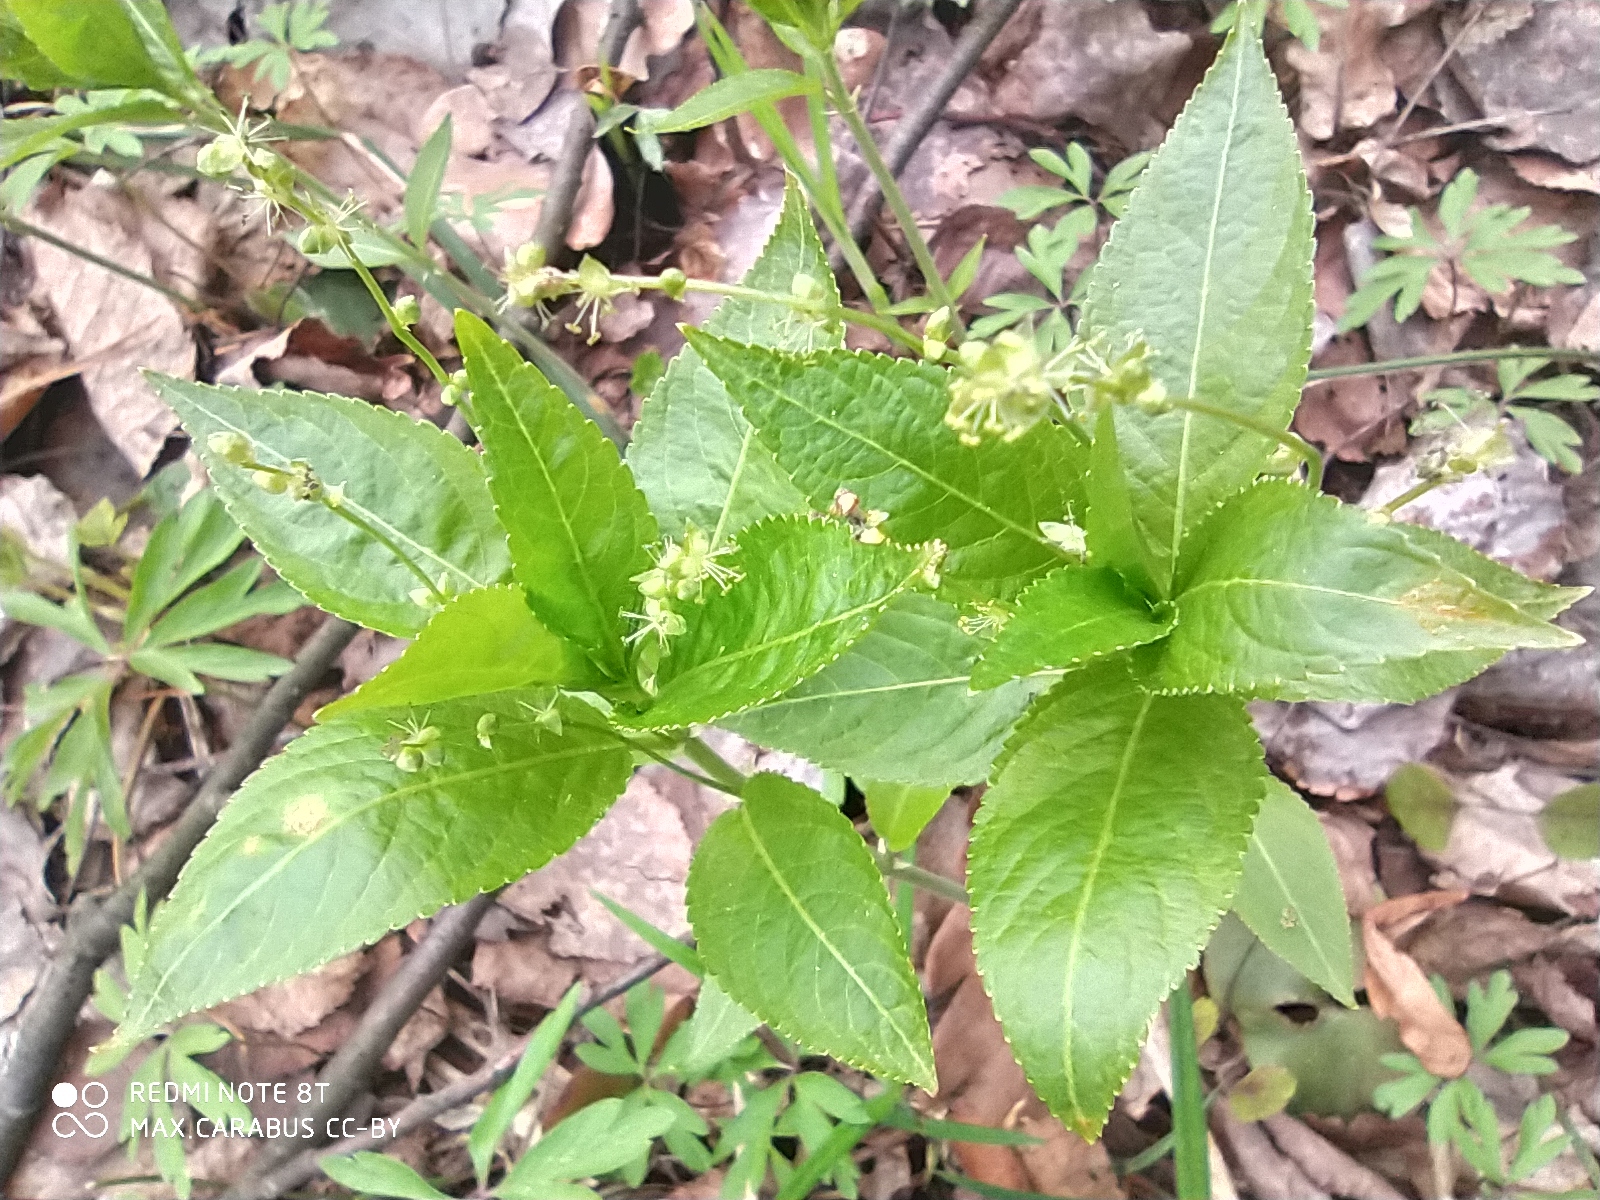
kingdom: Plantae
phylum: Tracheophyta
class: Magnoliopsida
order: Malpighiales
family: Euphorbiaceae
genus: Mercurialis
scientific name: Mercurialis perennis
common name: Dog mercury
